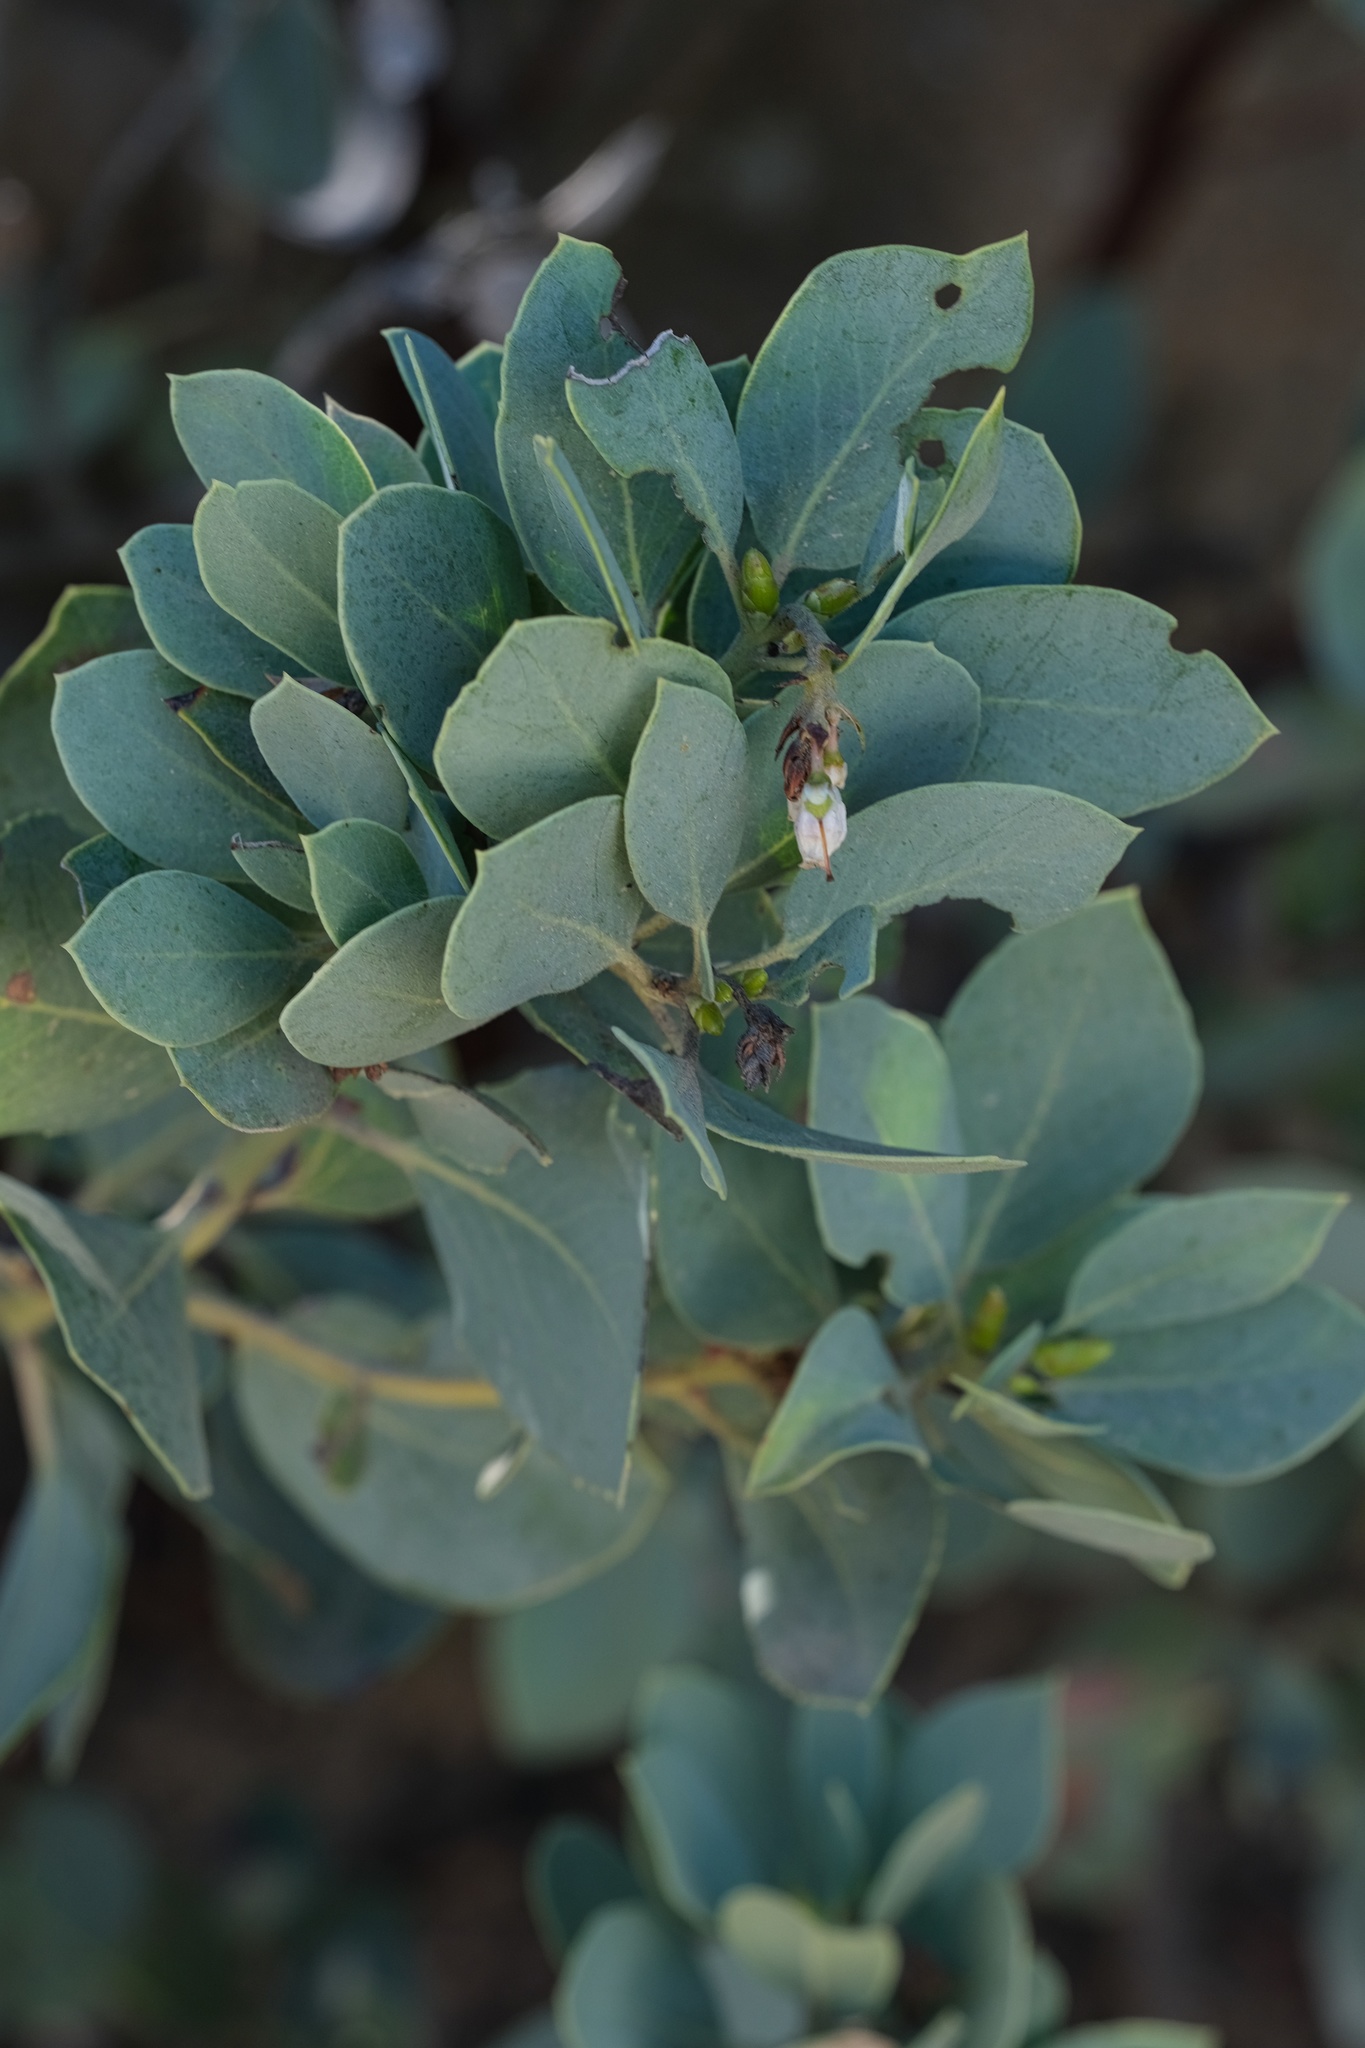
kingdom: Plantae
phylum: Tracheophyta
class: Magnoliopsida
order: Ericales
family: Ericaceae
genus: Arctostaphylos
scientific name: Arctostaphylos rainbowensis
